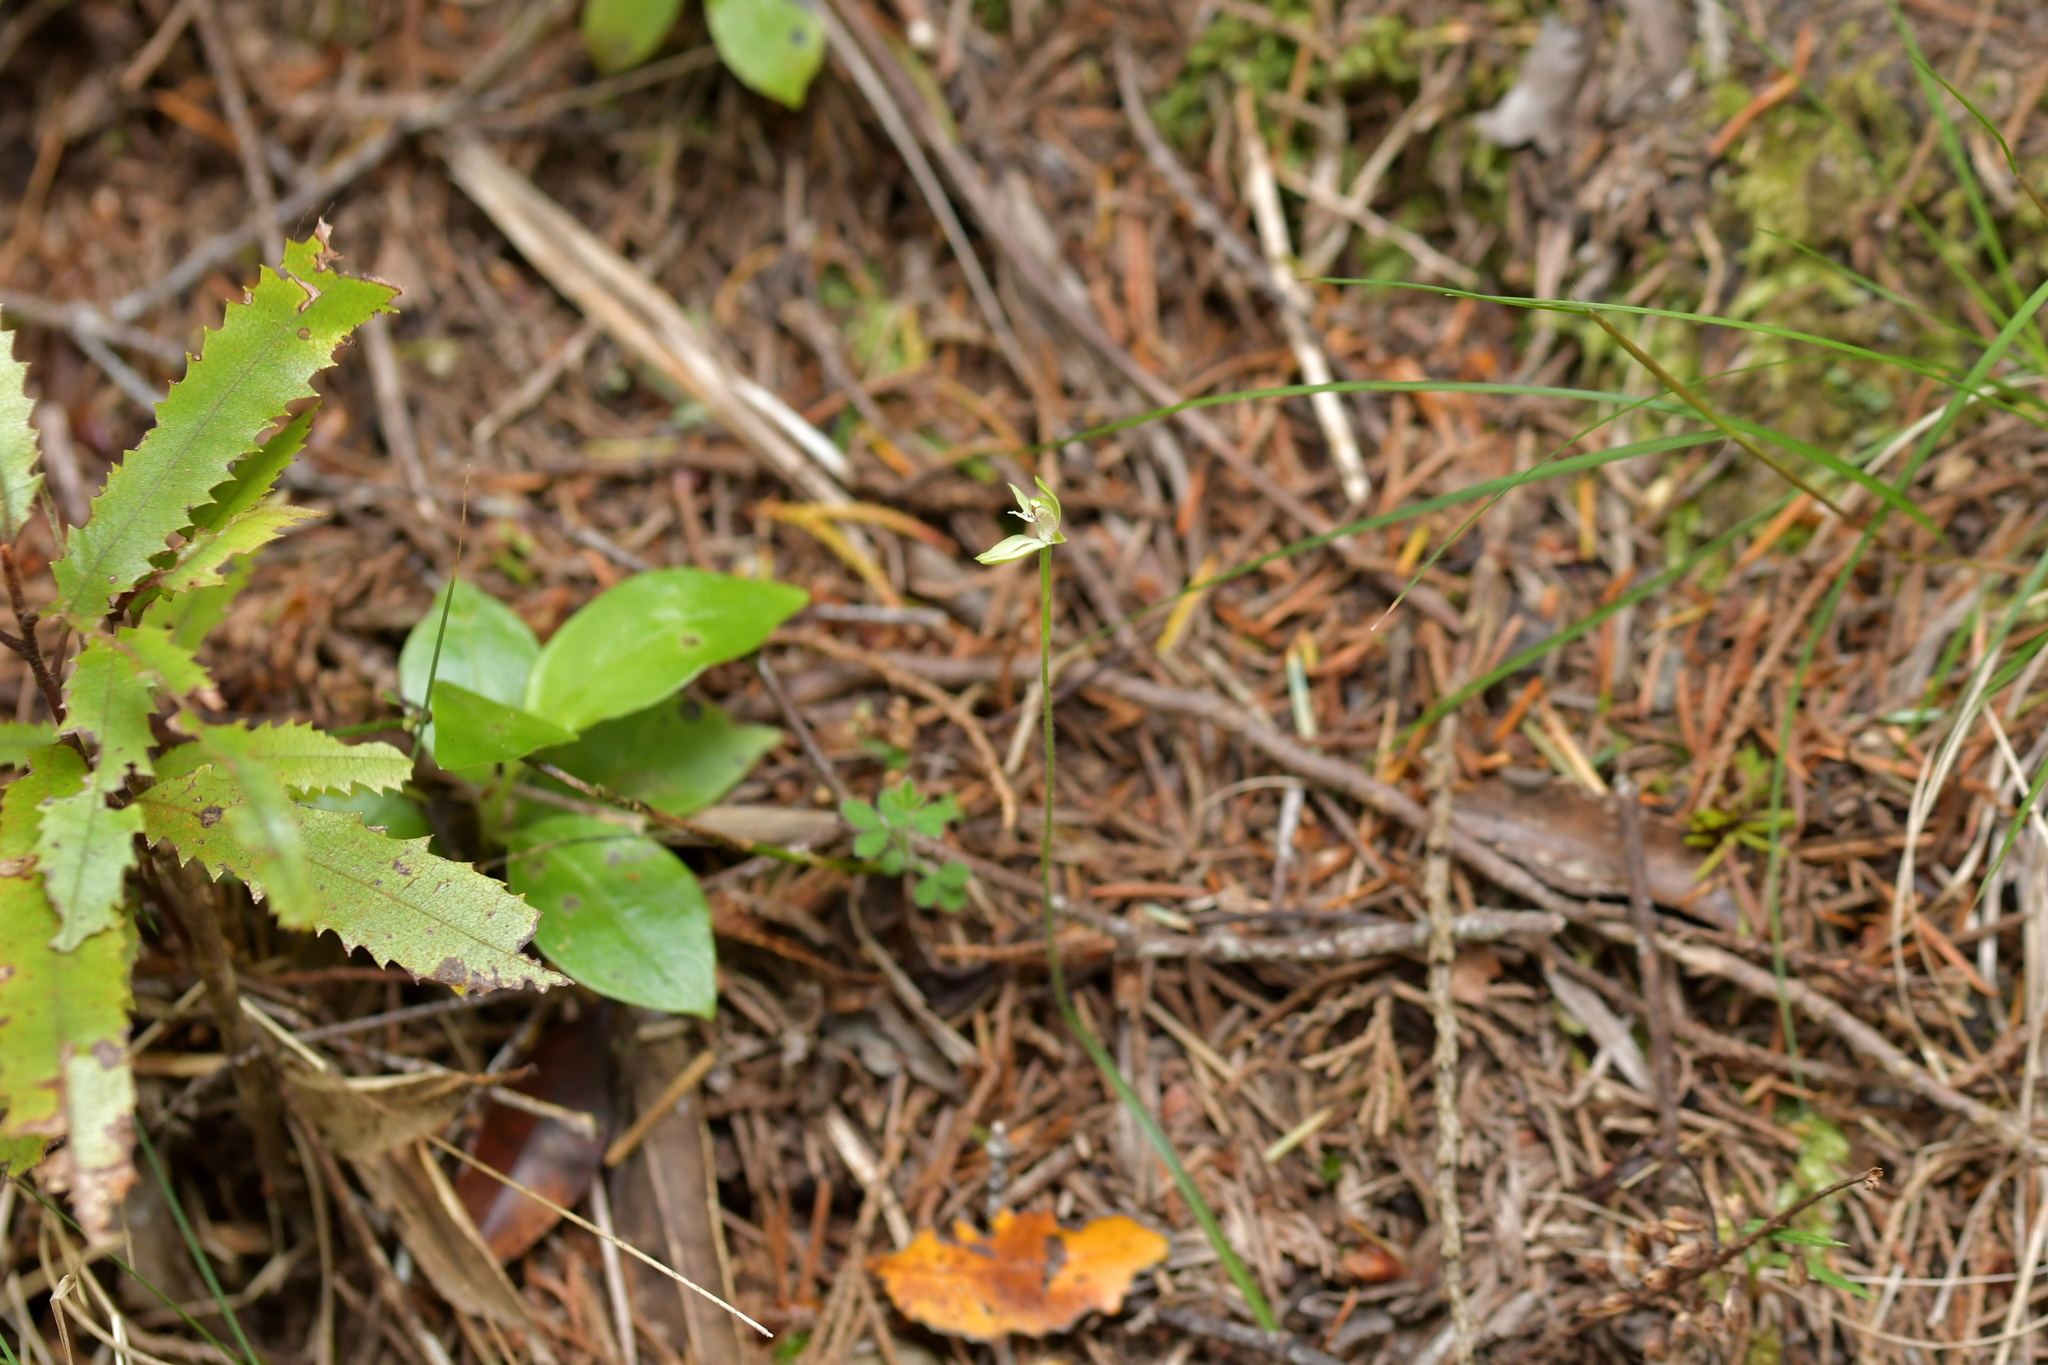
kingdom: Plantae
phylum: Tracheophyta
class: Liliopsida
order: Asparagales
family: Orchidaceae
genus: Caladenia
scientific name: Caladenia chlorostyla
